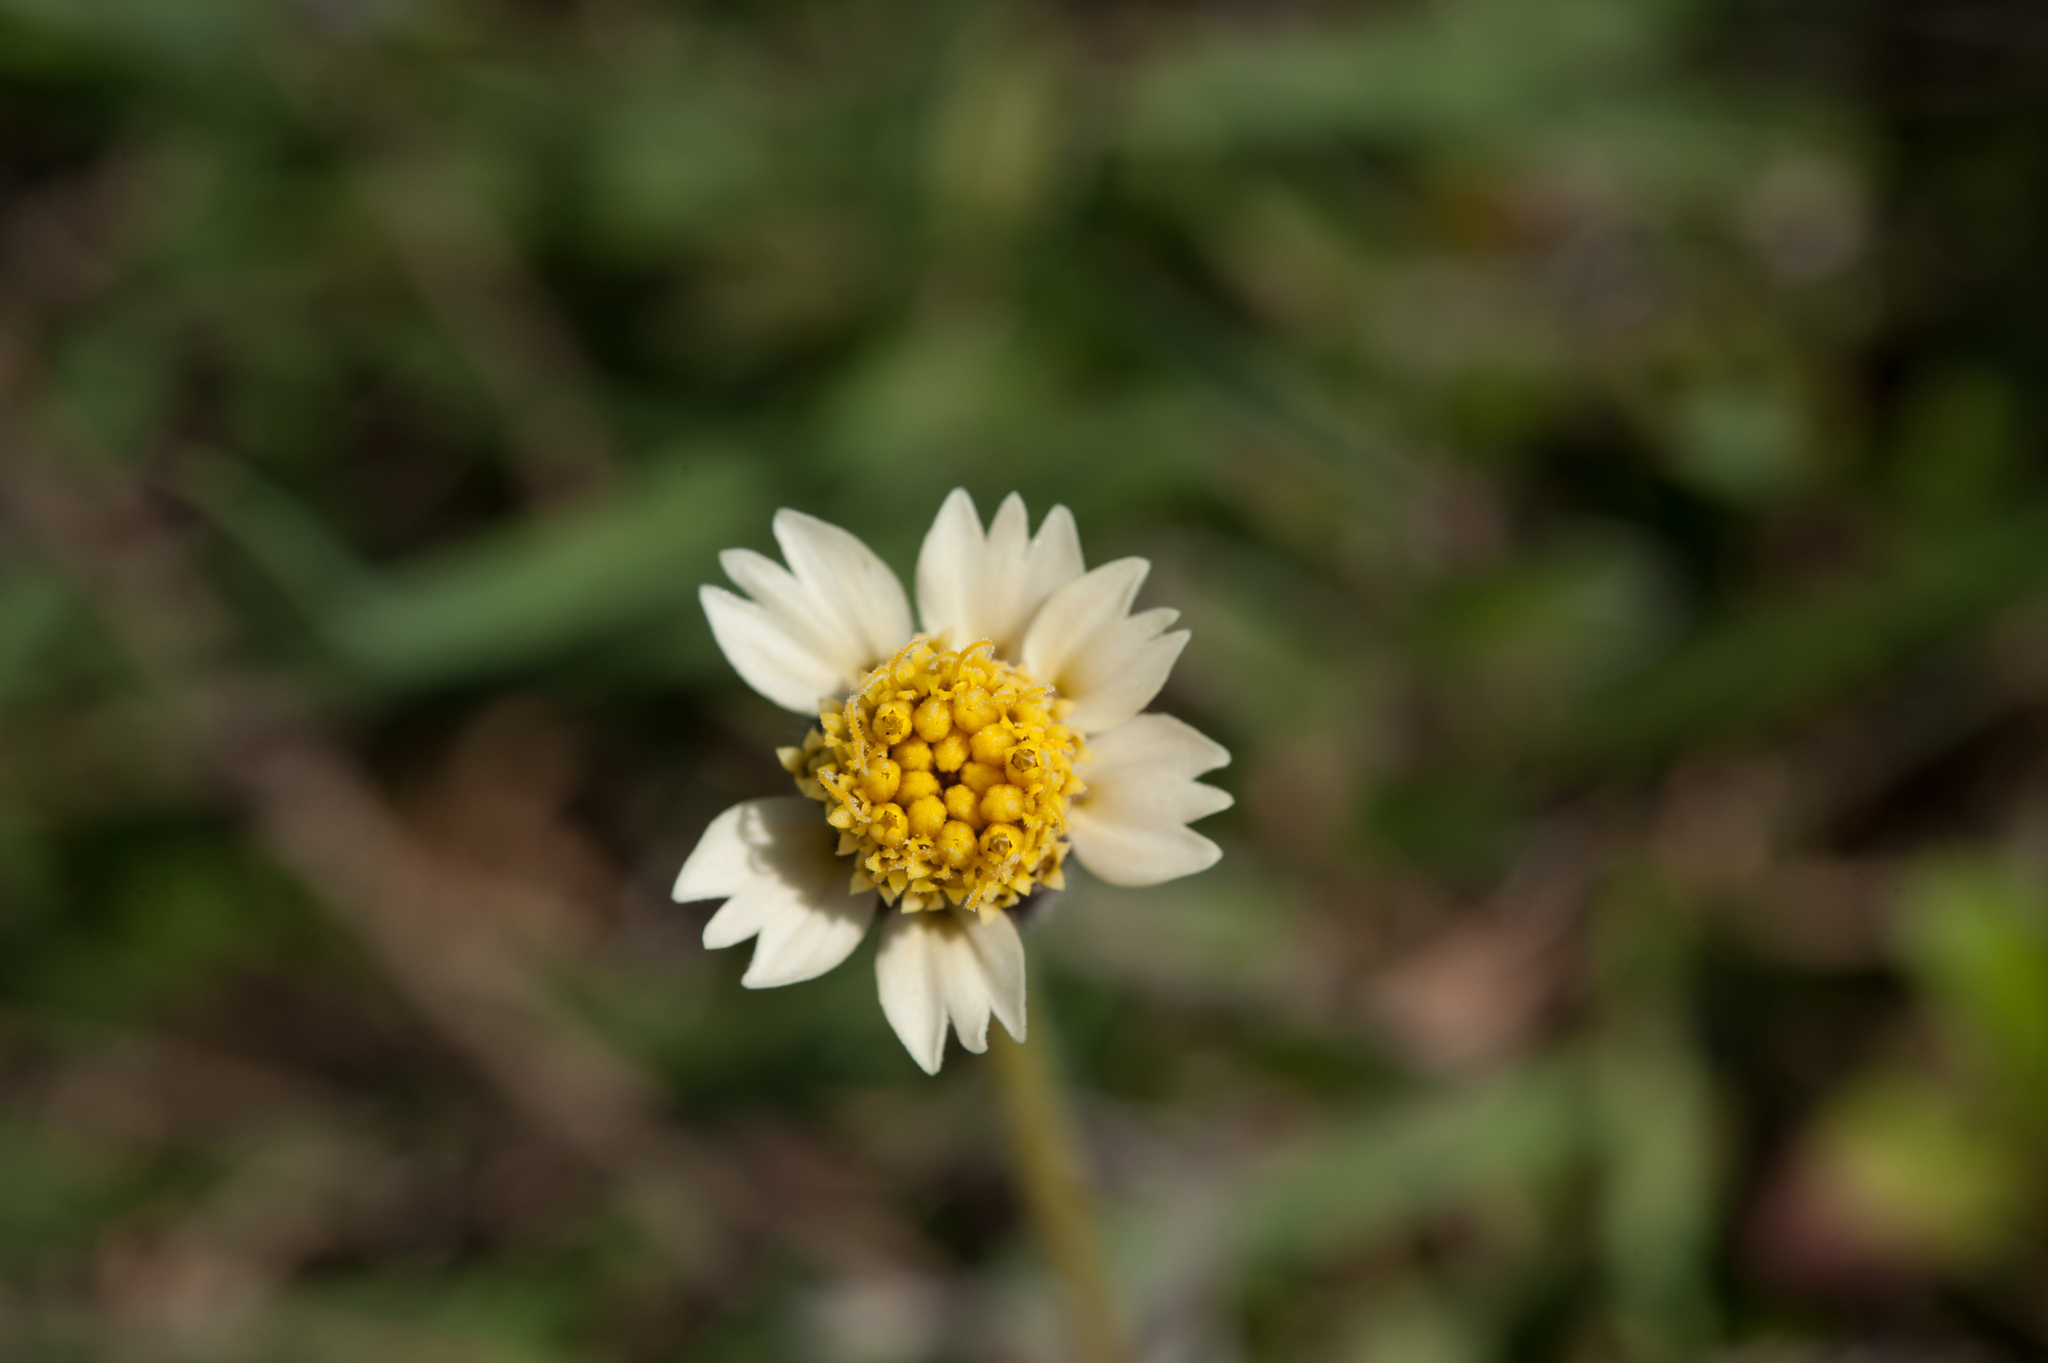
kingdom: Plantae
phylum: Tracheophyta
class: Magnoliopsida
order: Asterales
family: Asteraceae
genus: Tridax
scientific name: Tridax procumbens
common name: Coatbuttons
